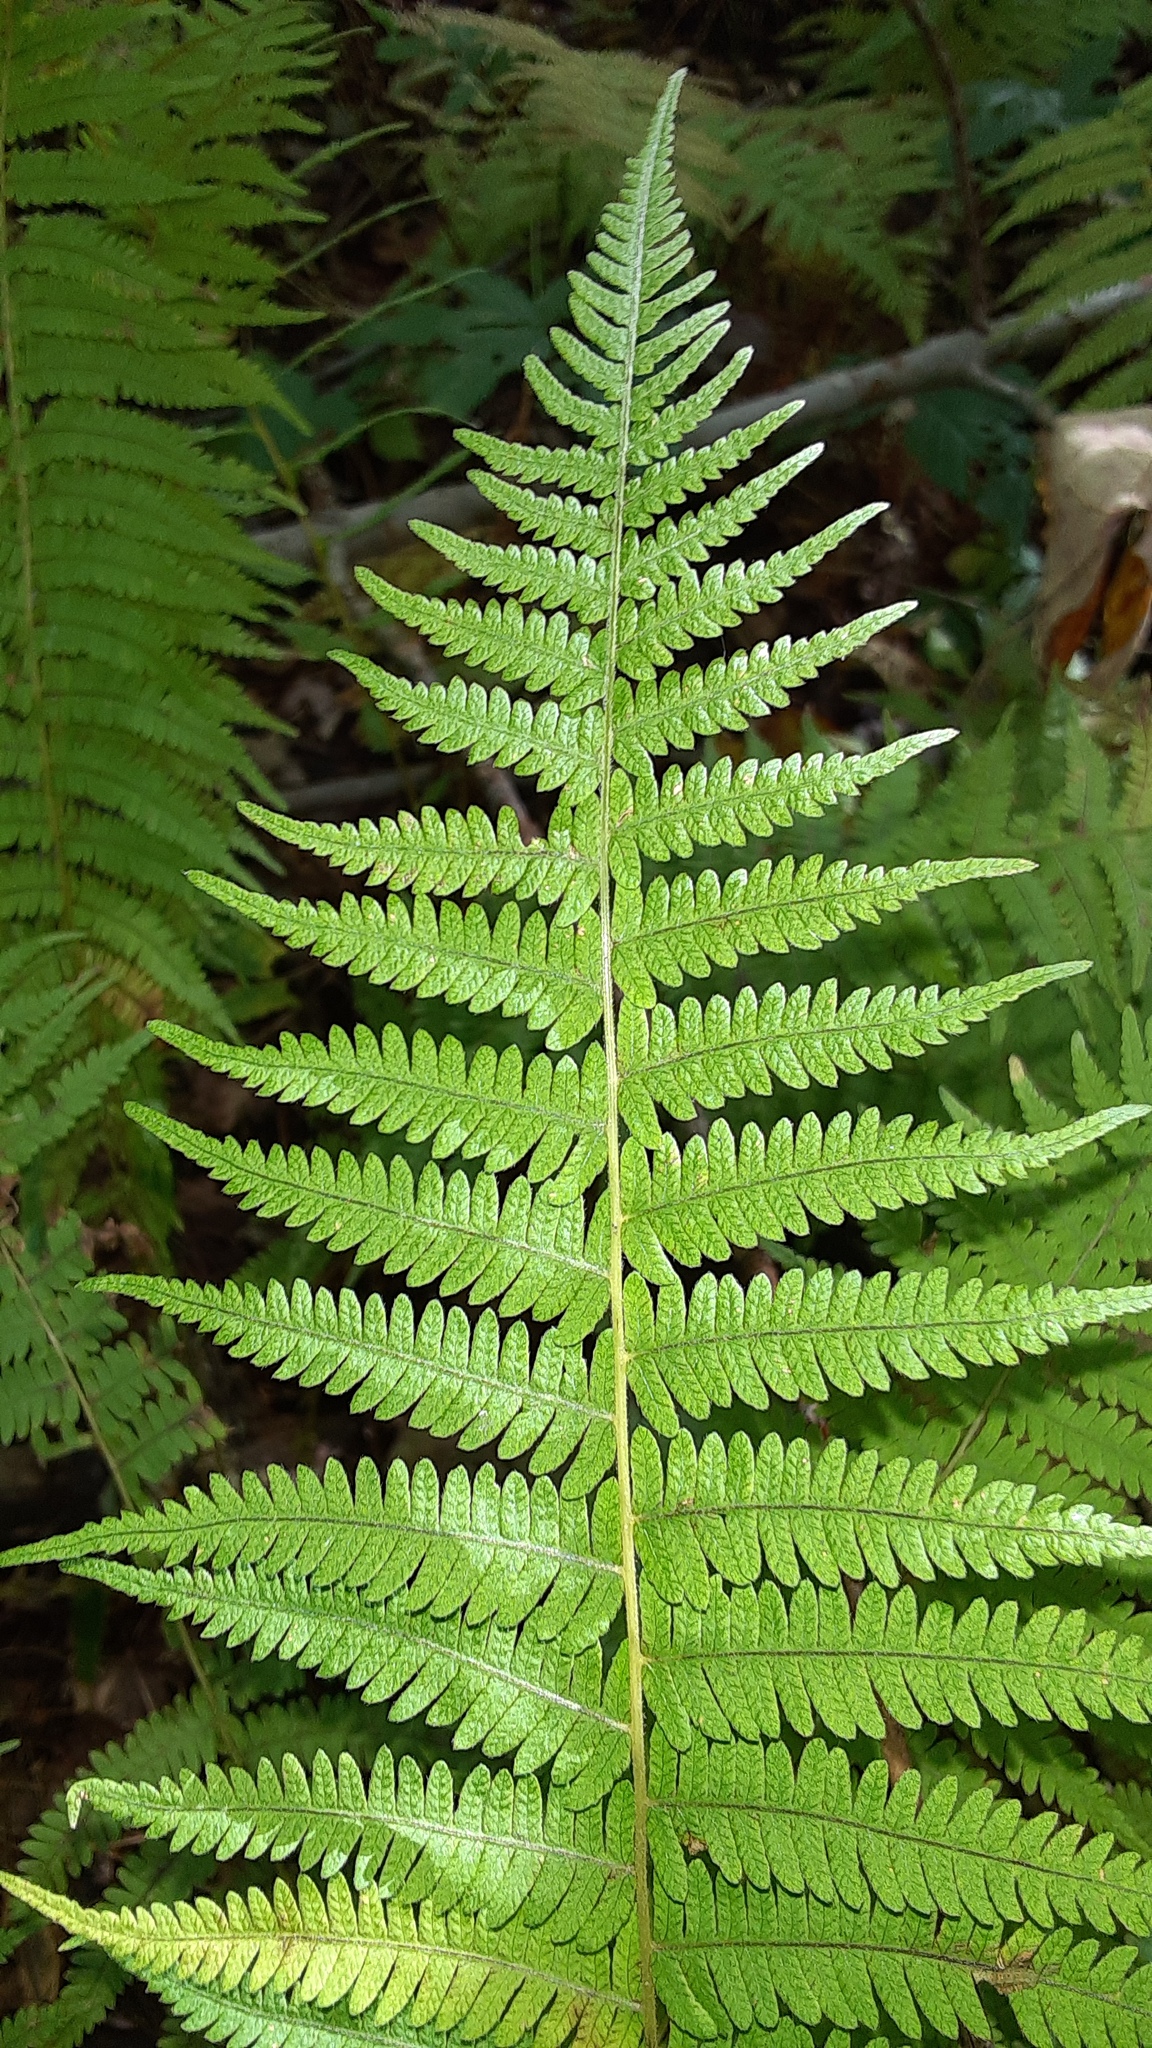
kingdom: Plantae
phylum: Tracheophyta
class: Polypodiopsida
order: Polypodiales
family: Thelypteridaceae
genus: Amauropelta
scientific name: Amauropelta noveboracensis
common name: New york fern
